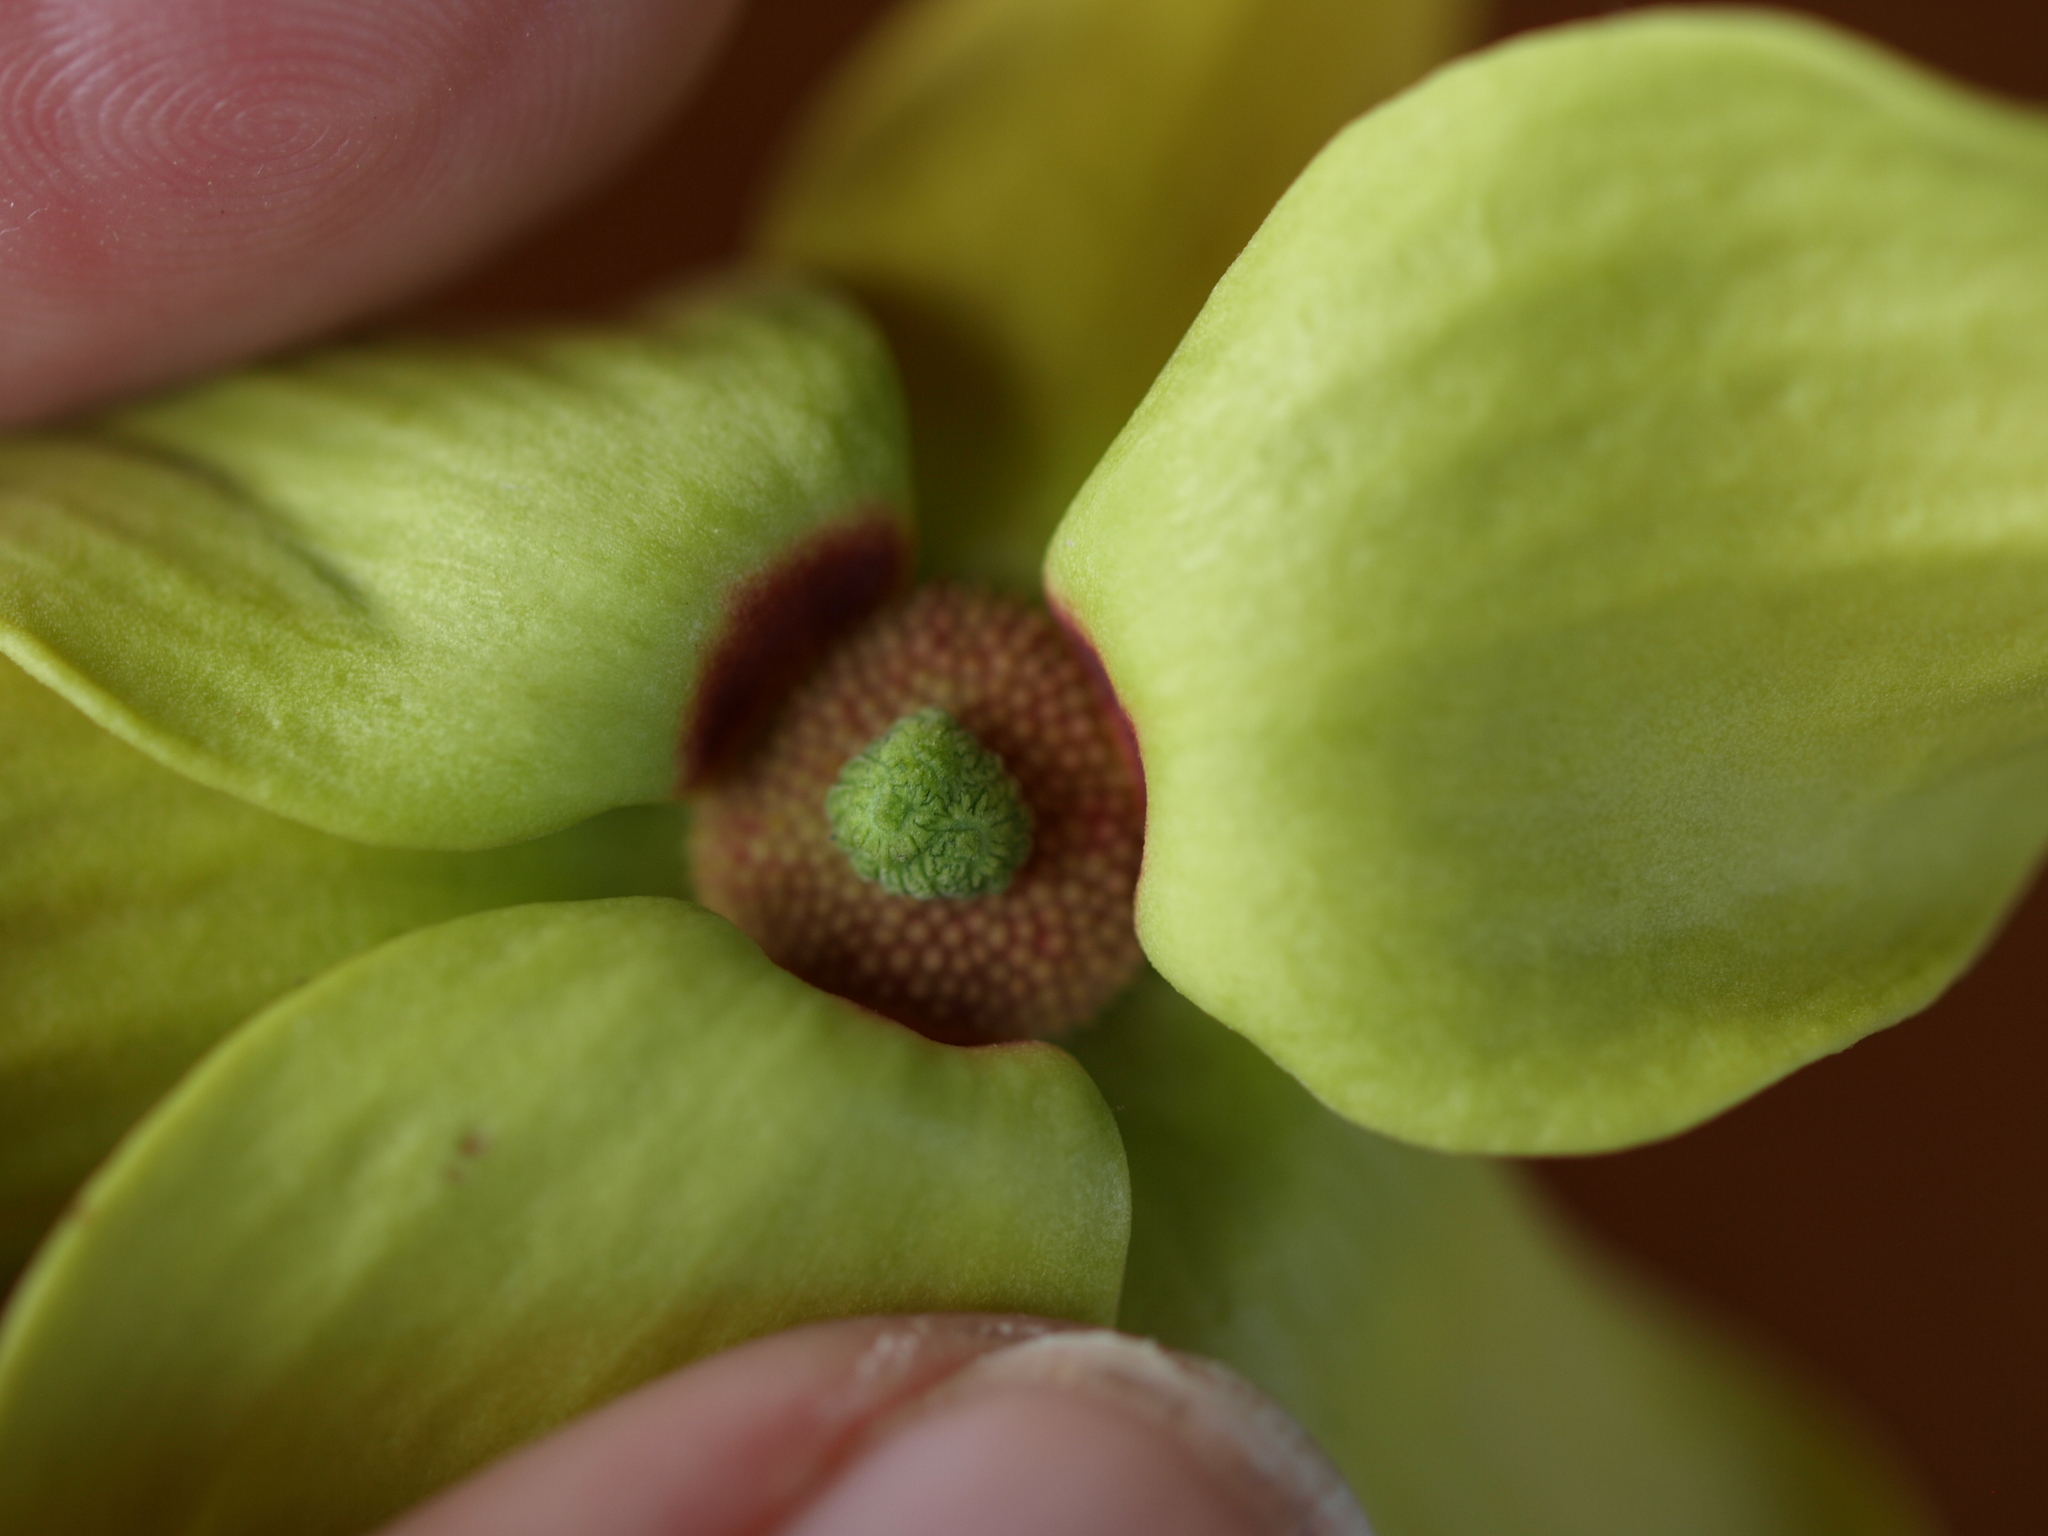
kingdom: Plantae
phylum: Tracheophyta
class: Magnoliopsida
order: Magnoliales
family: Annonaceae
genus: Cananga
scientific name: Cananga odorata
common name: Cananga tree
